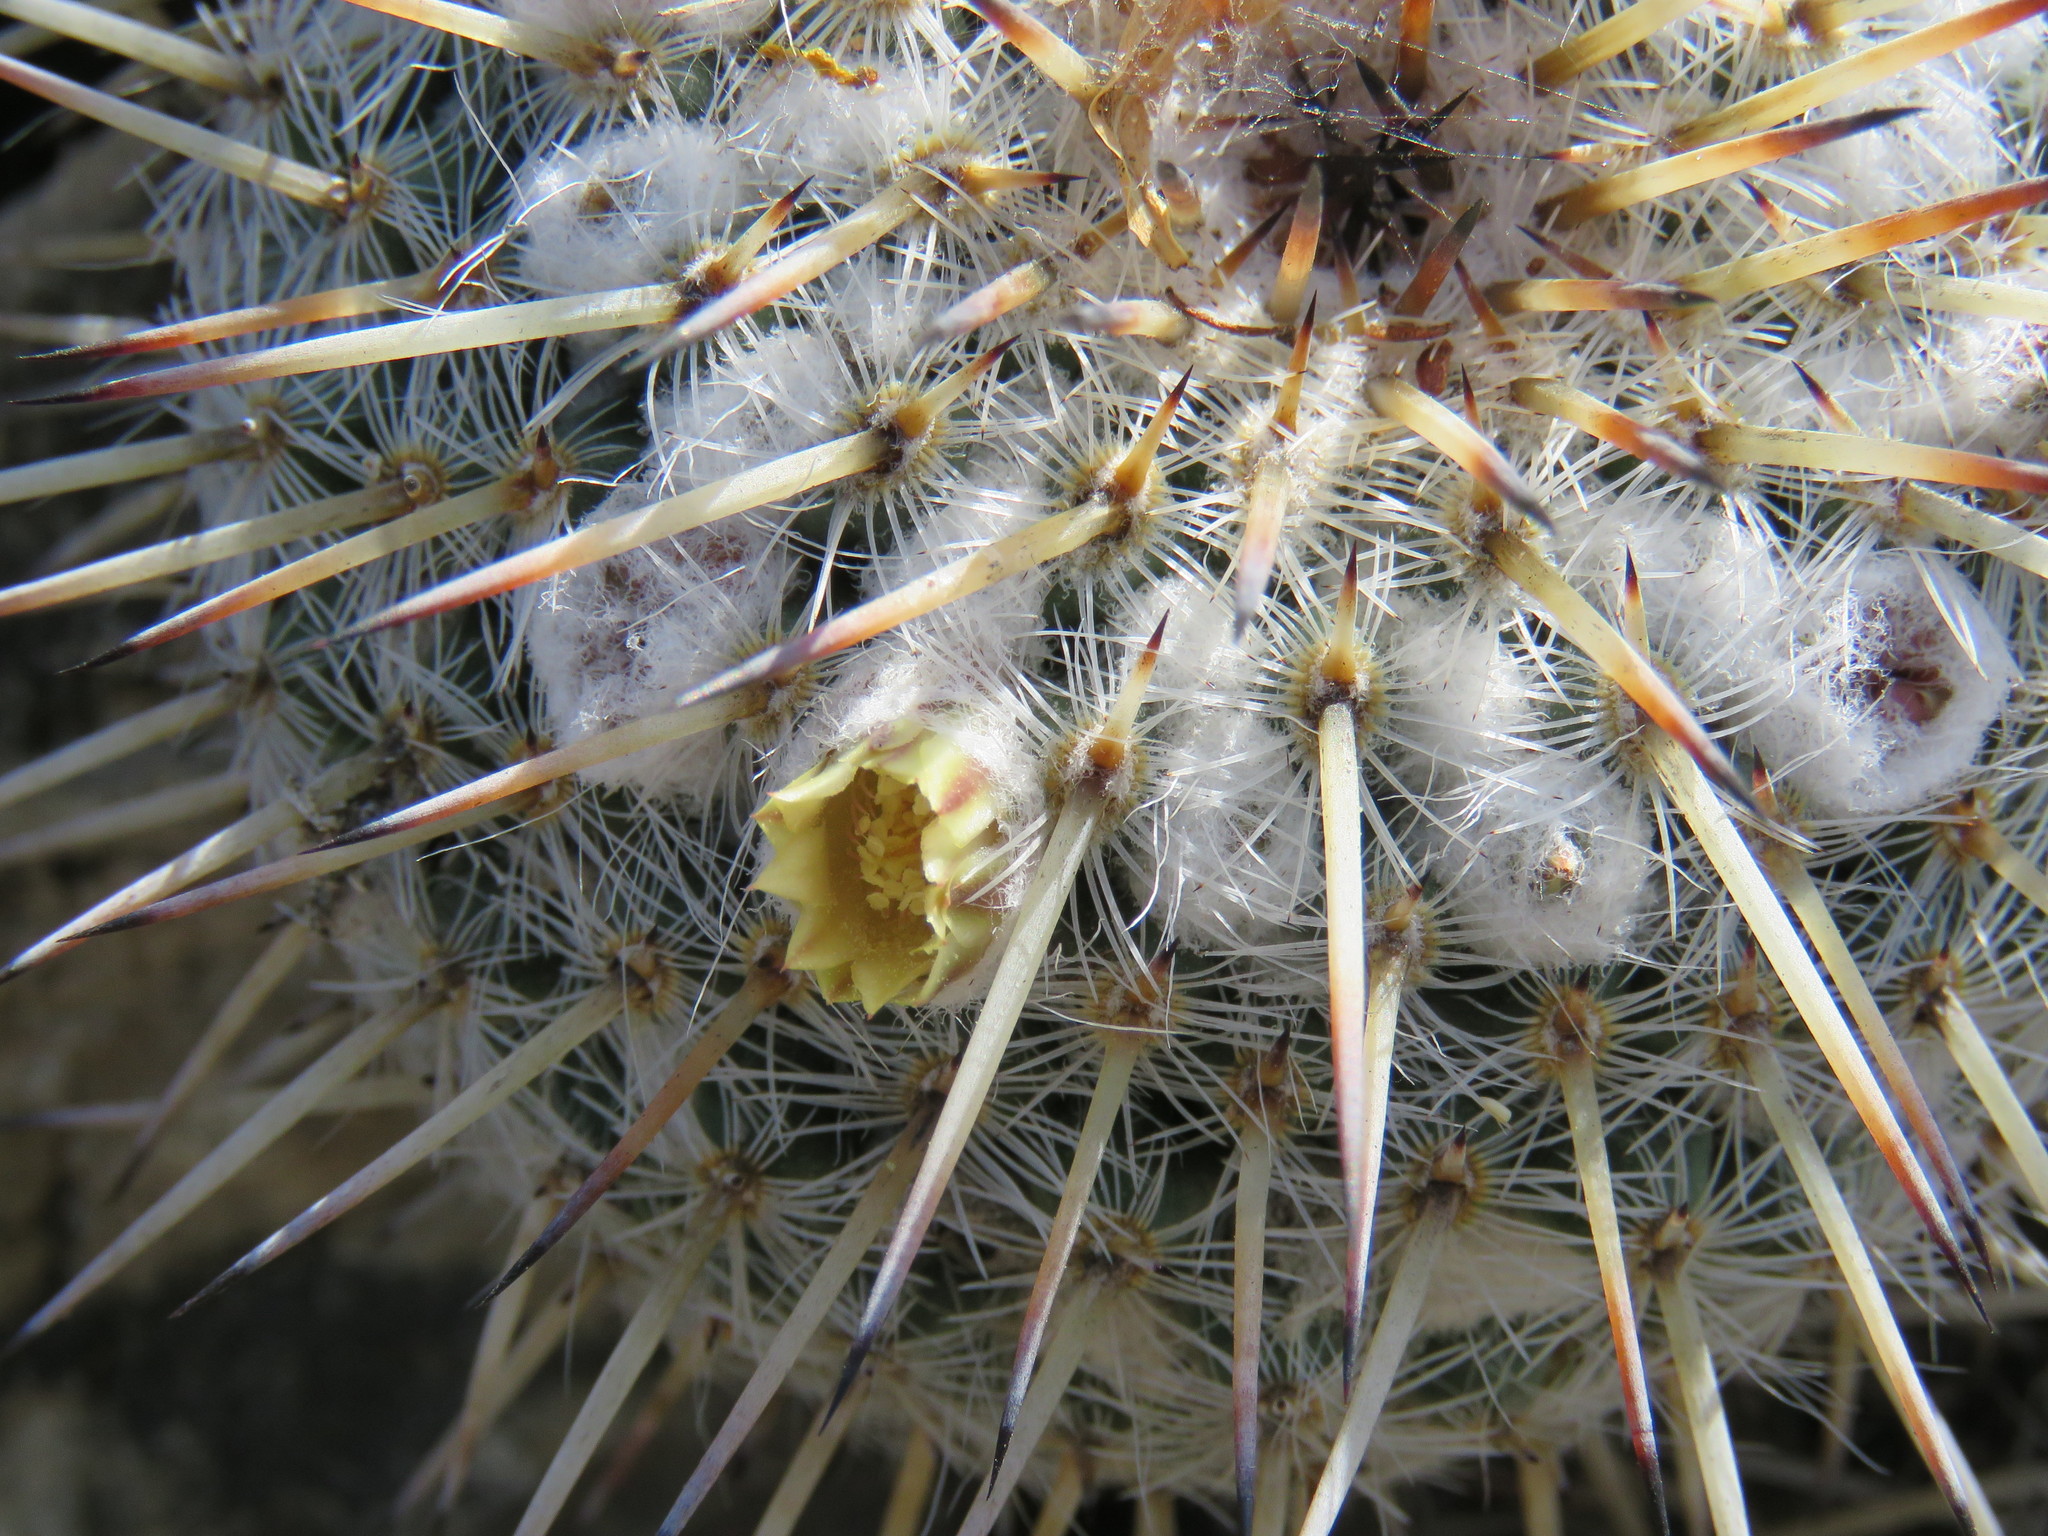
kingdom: Plantae
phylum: Tracheophyta
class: Magnoliopsida
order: Caryophyllales
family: Cactaceae
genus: Mammillaria
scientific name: Mammillaria parkinsonii
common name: Owl's-eye
